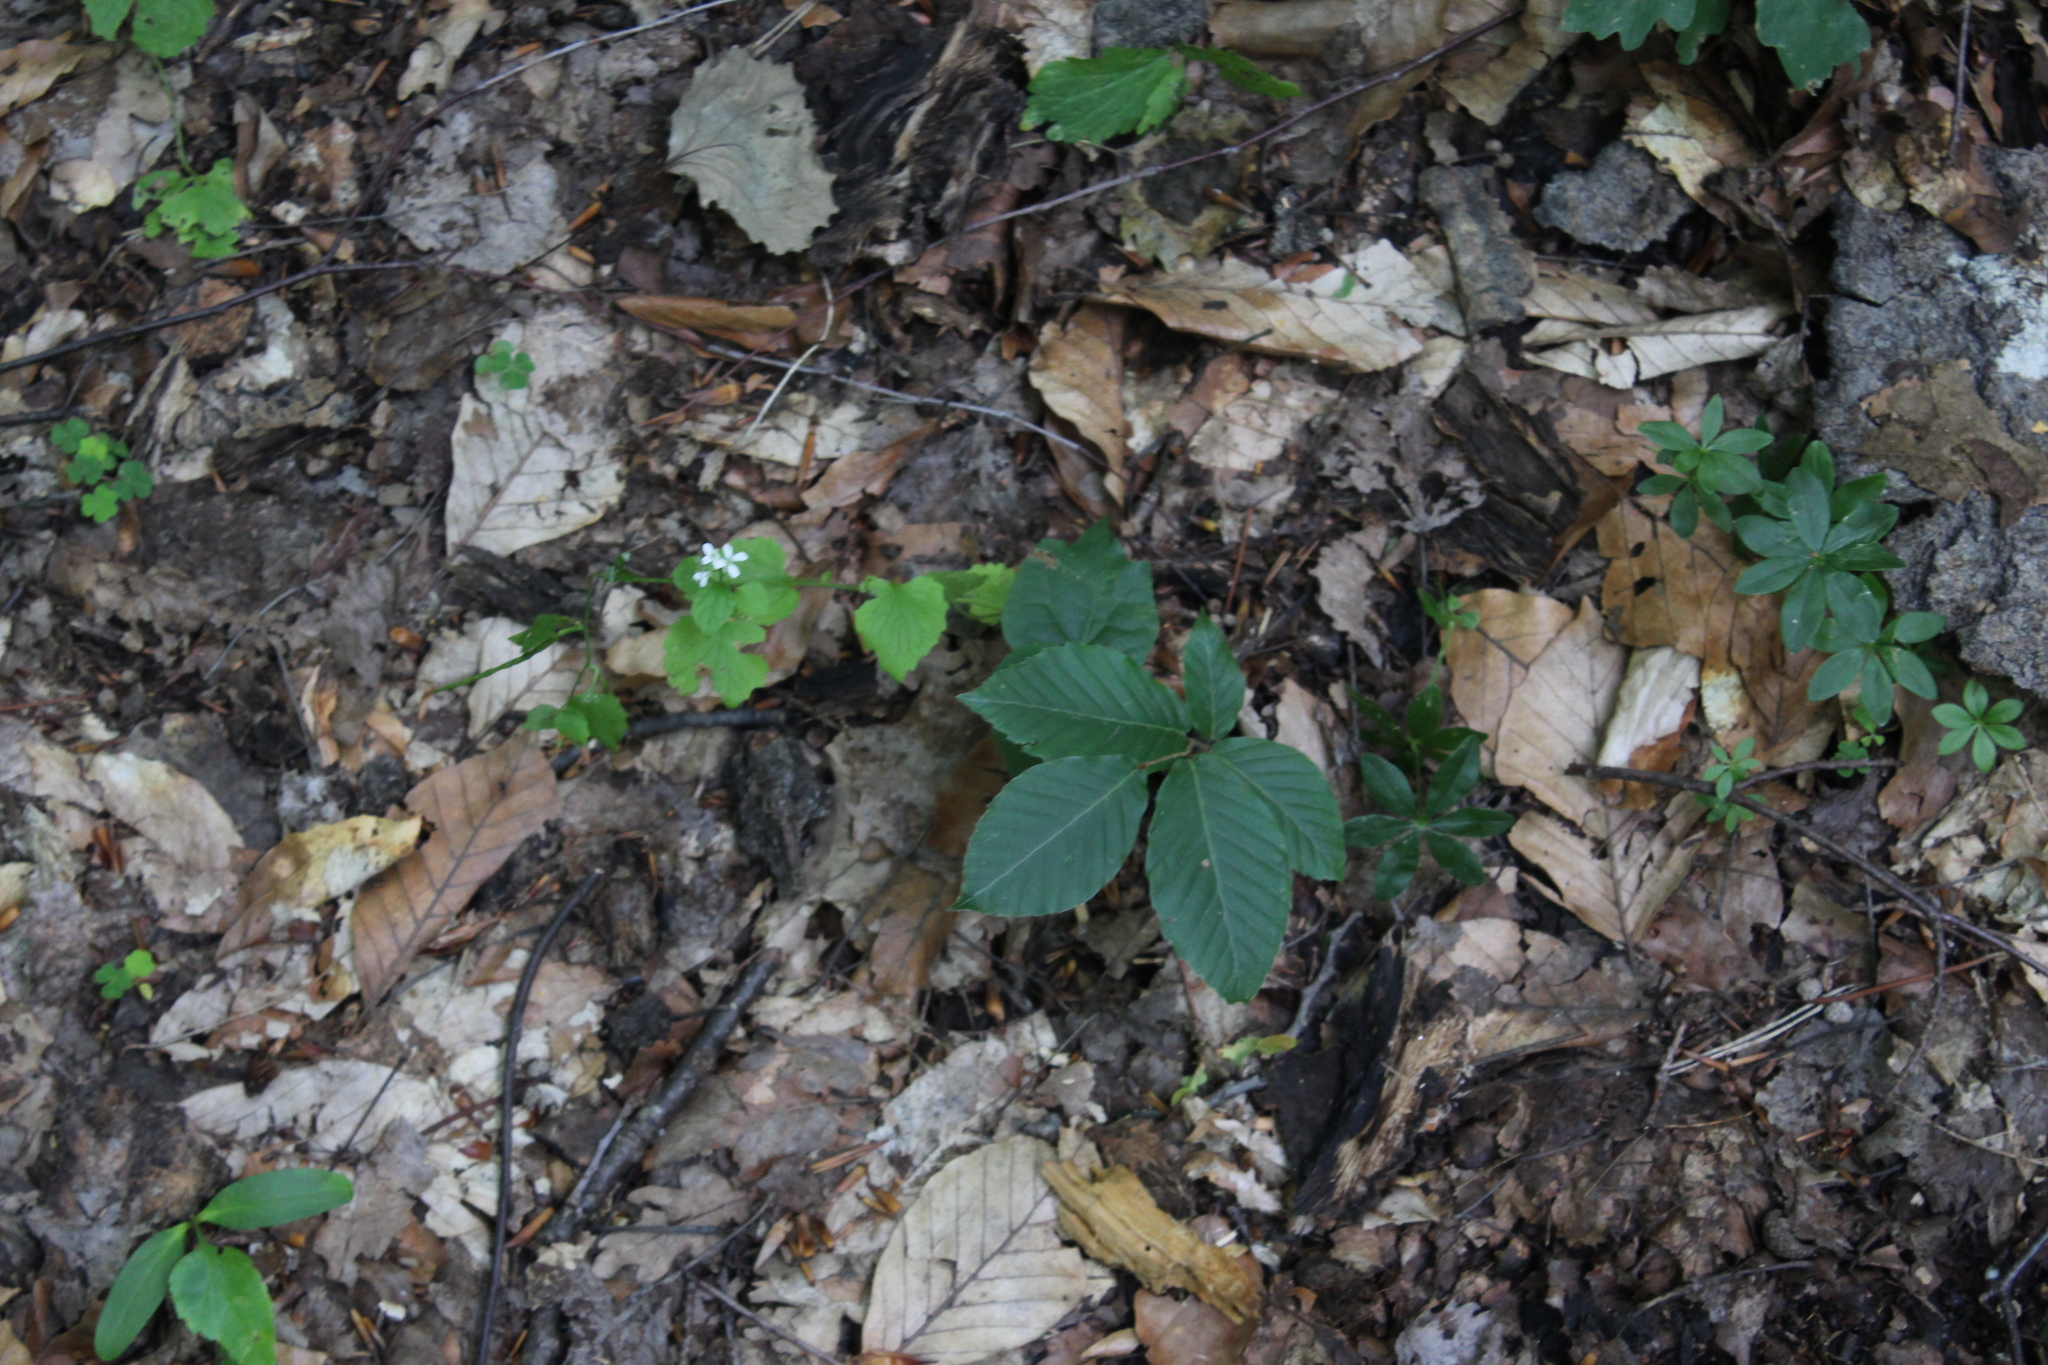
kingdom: Plantae
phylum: Tracheophyta
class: Magnoliopsida
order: Brassicales
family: Brassicaceae
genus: Alliaria
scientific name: Alliaria petiolata
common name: Garlic mustard
